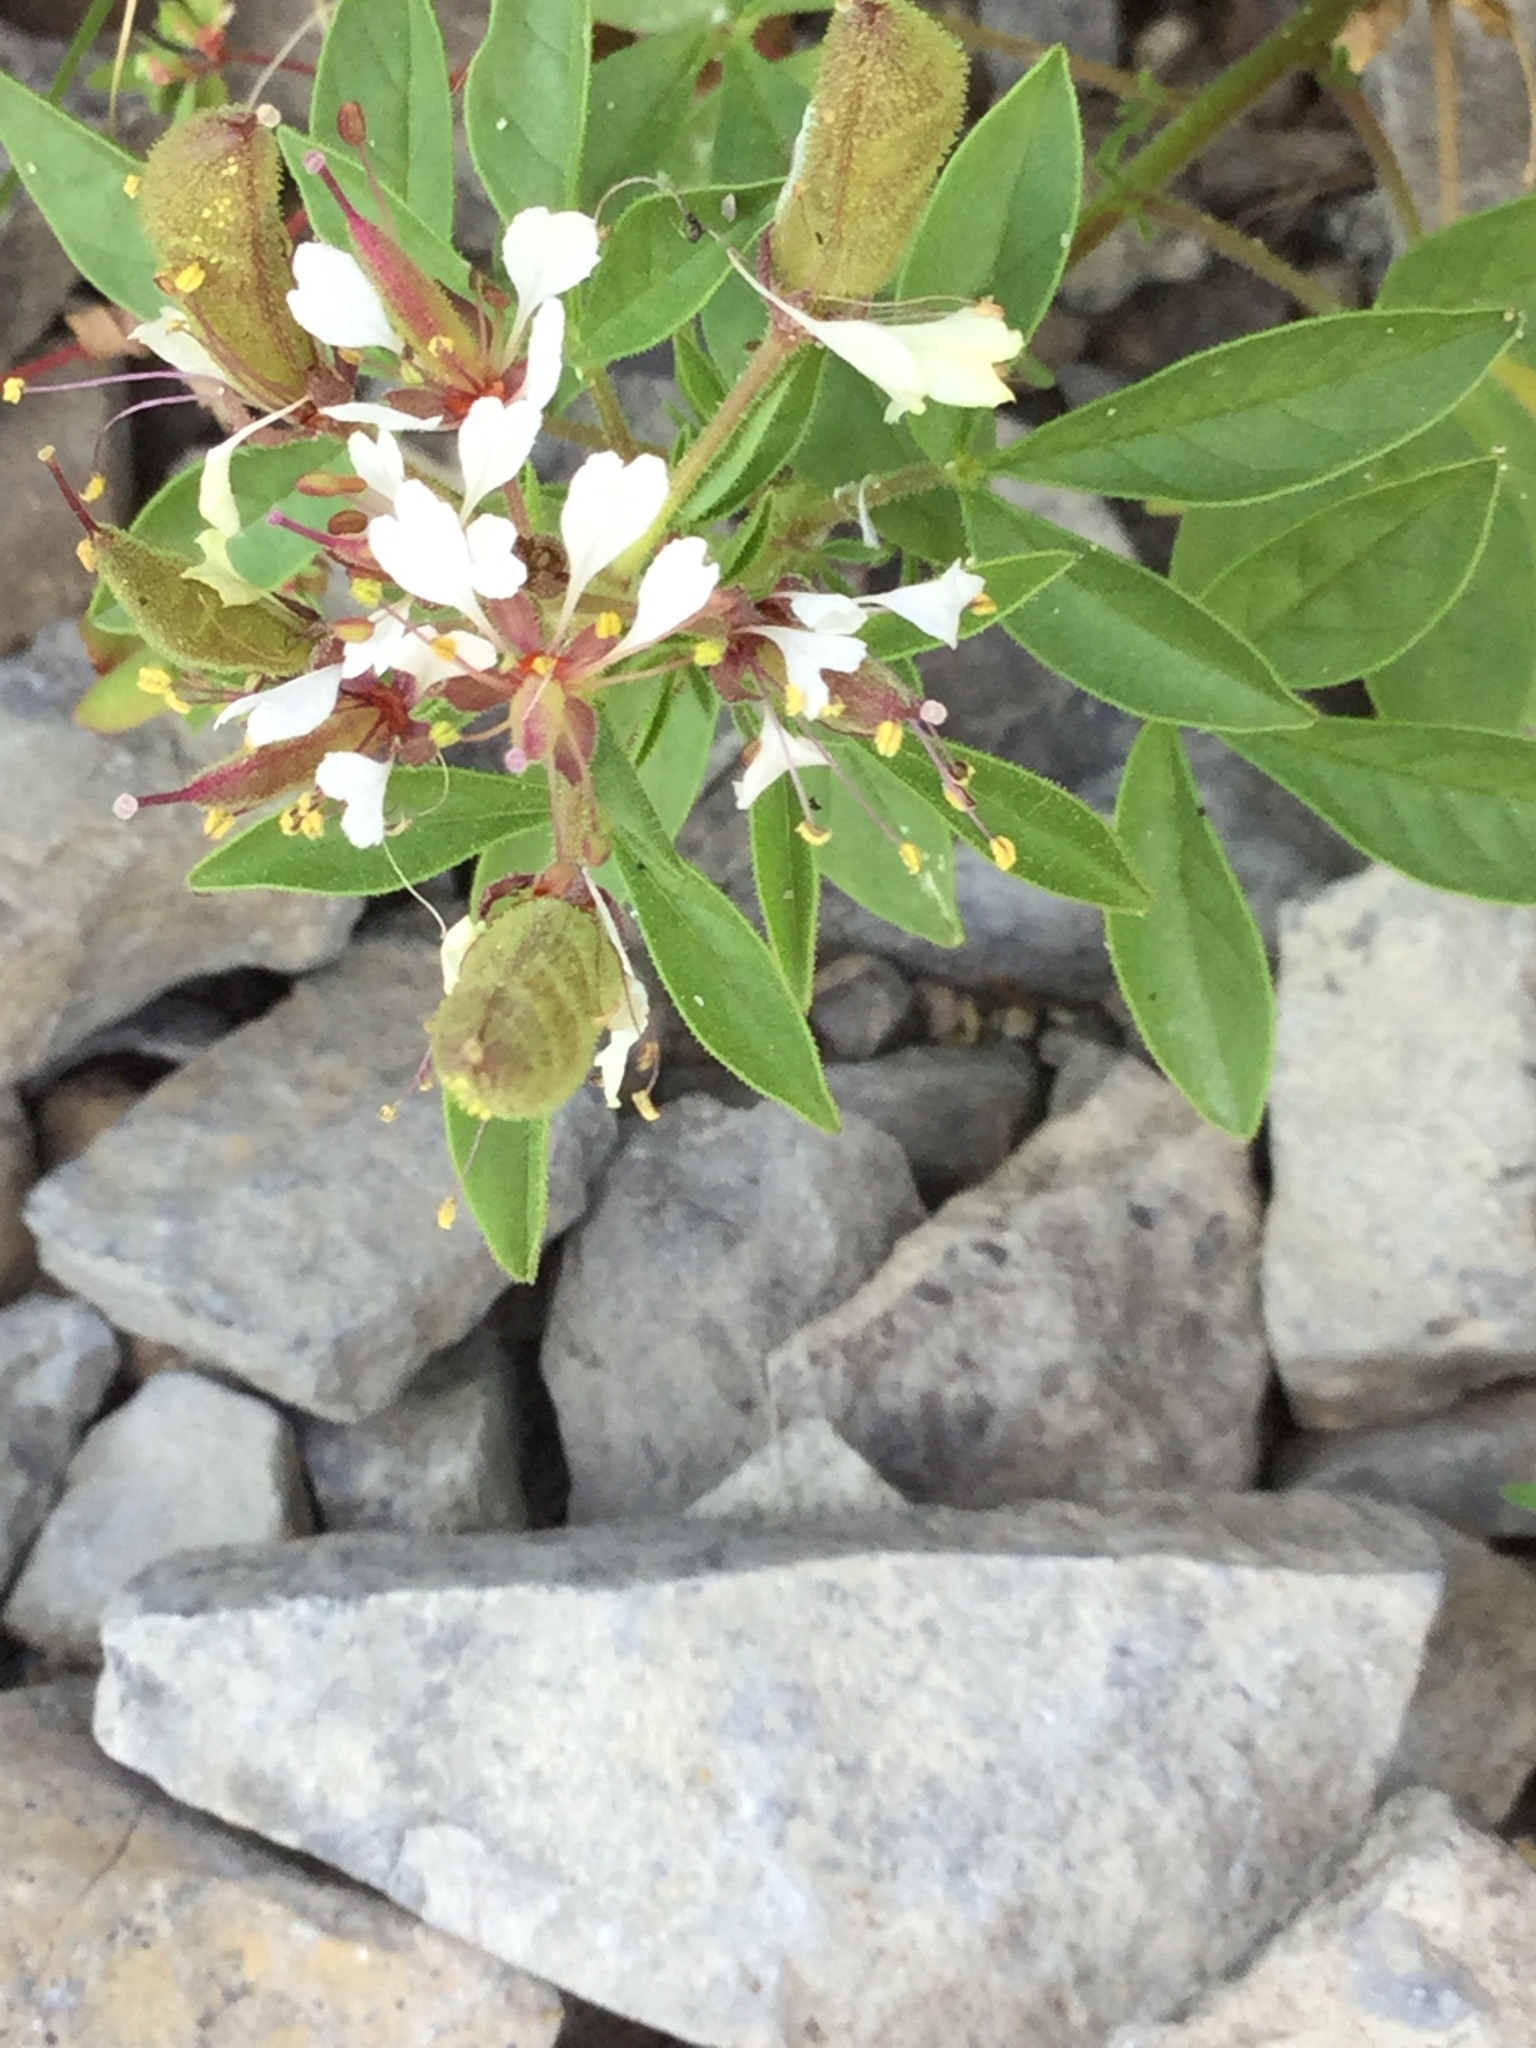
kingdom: Plantae
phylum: Tracheophyta
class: Magnoliopsida
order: Brassicales
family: Cleomaceae
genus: Polanisia
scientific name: Polanisia dodecandra
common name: Clammyweed
